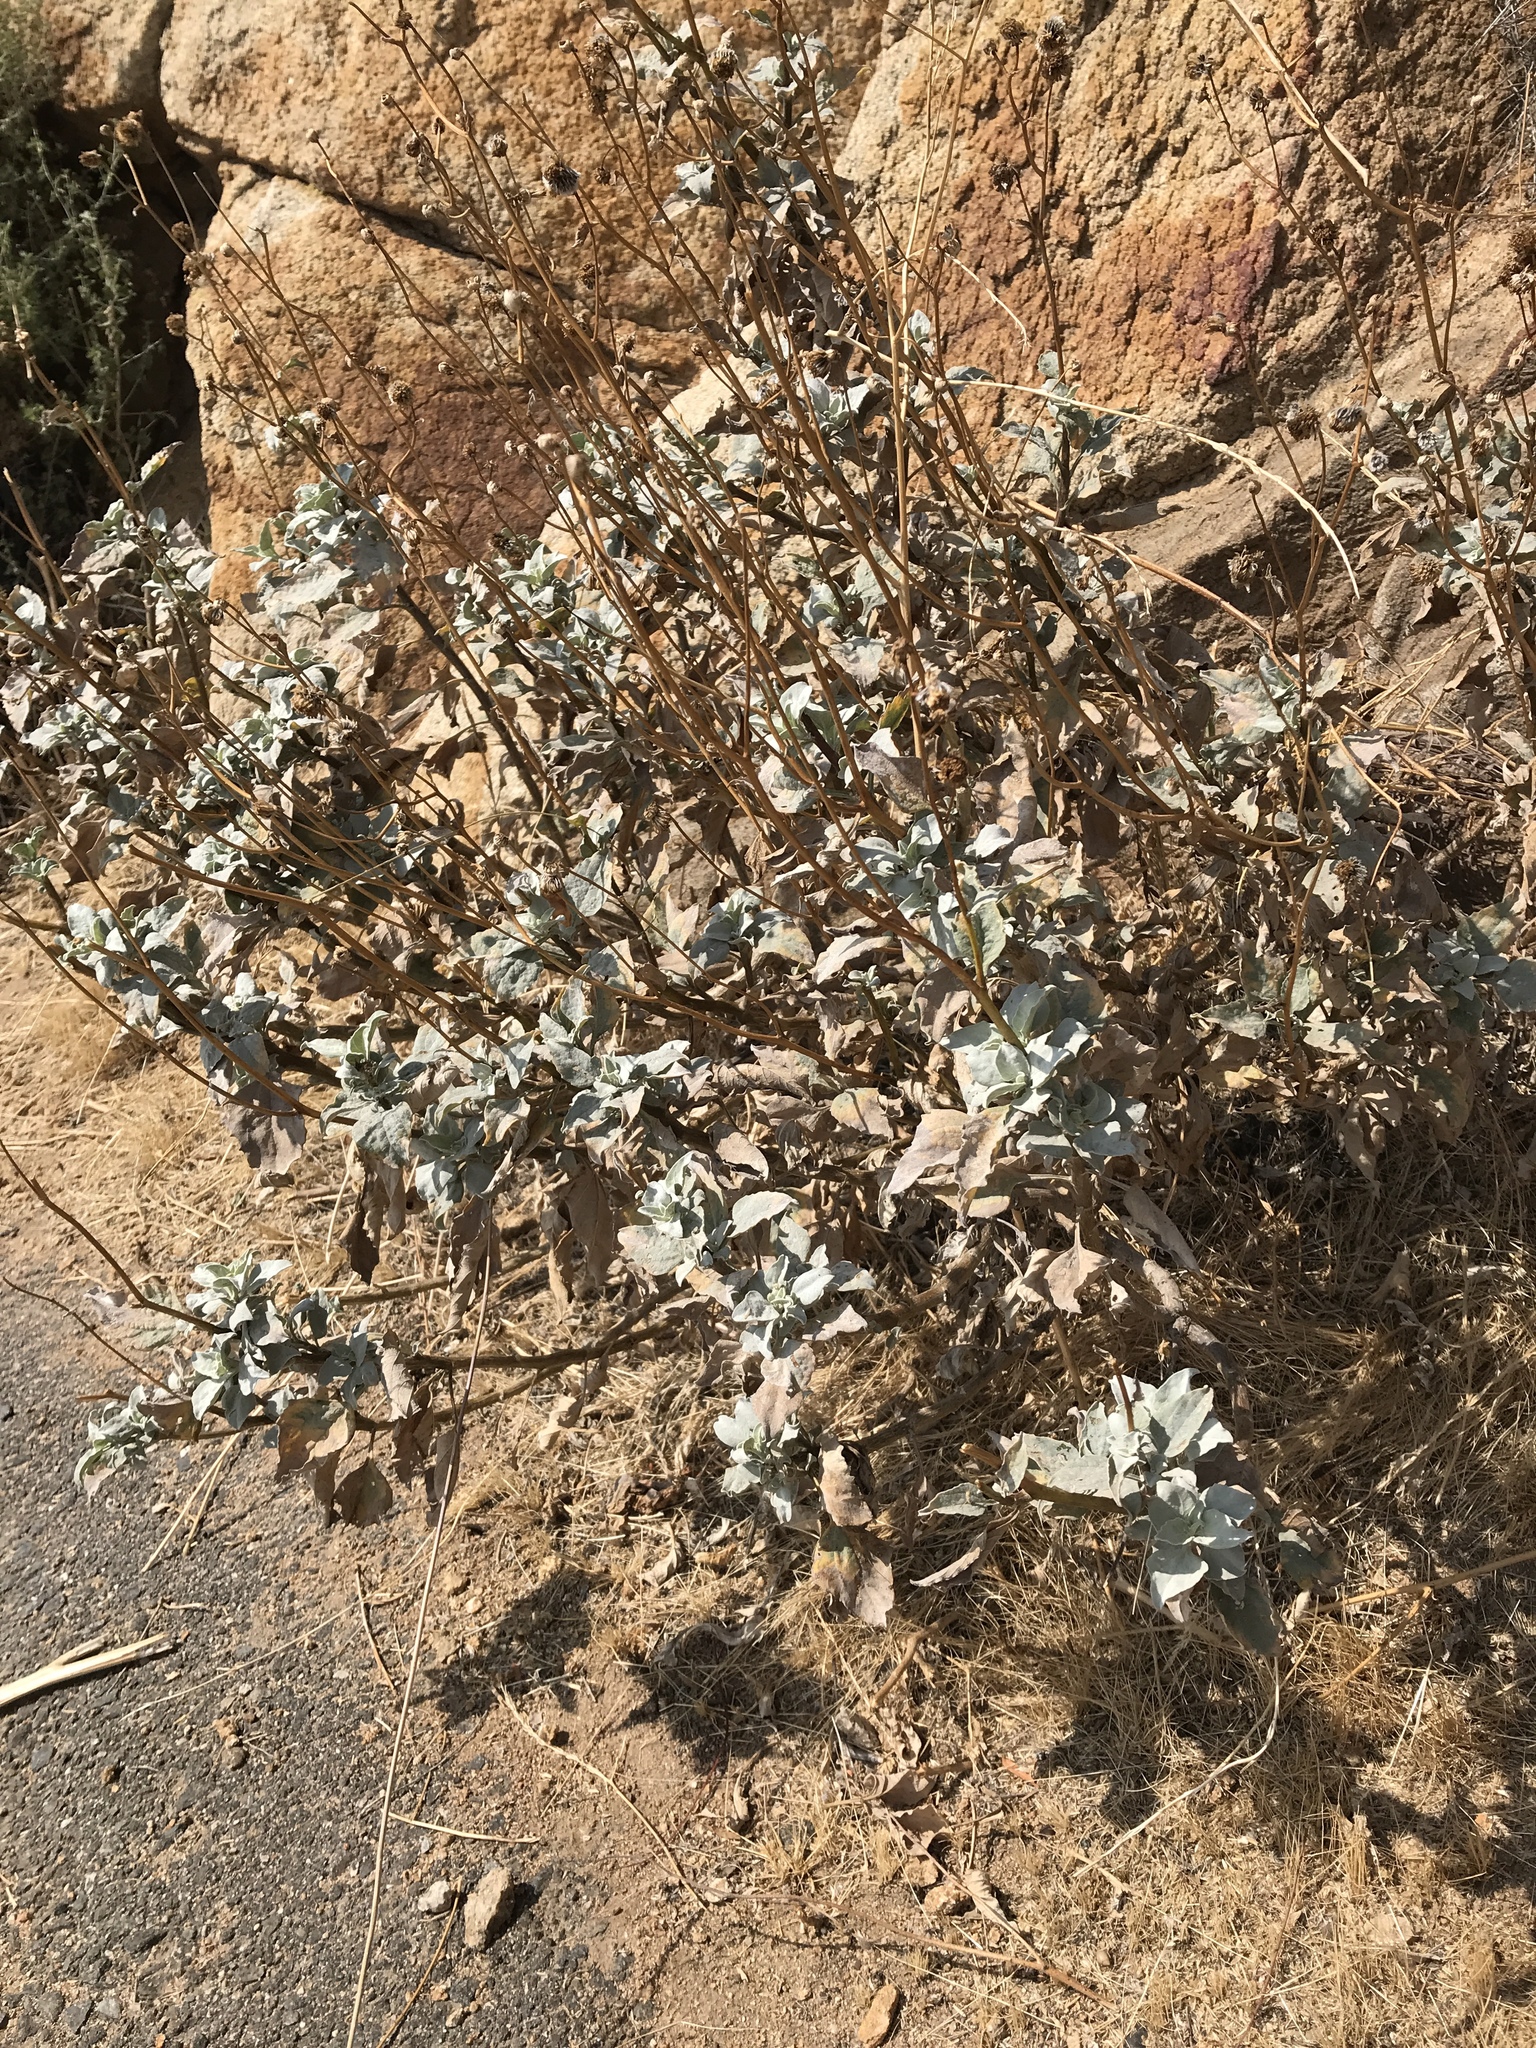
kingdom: Plantae
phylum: Tracheophyta
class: Magnoliopsida
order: Asterales
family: Asteraceae
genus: Encelia
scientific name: Encelia farinosa
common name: Brittlebush
